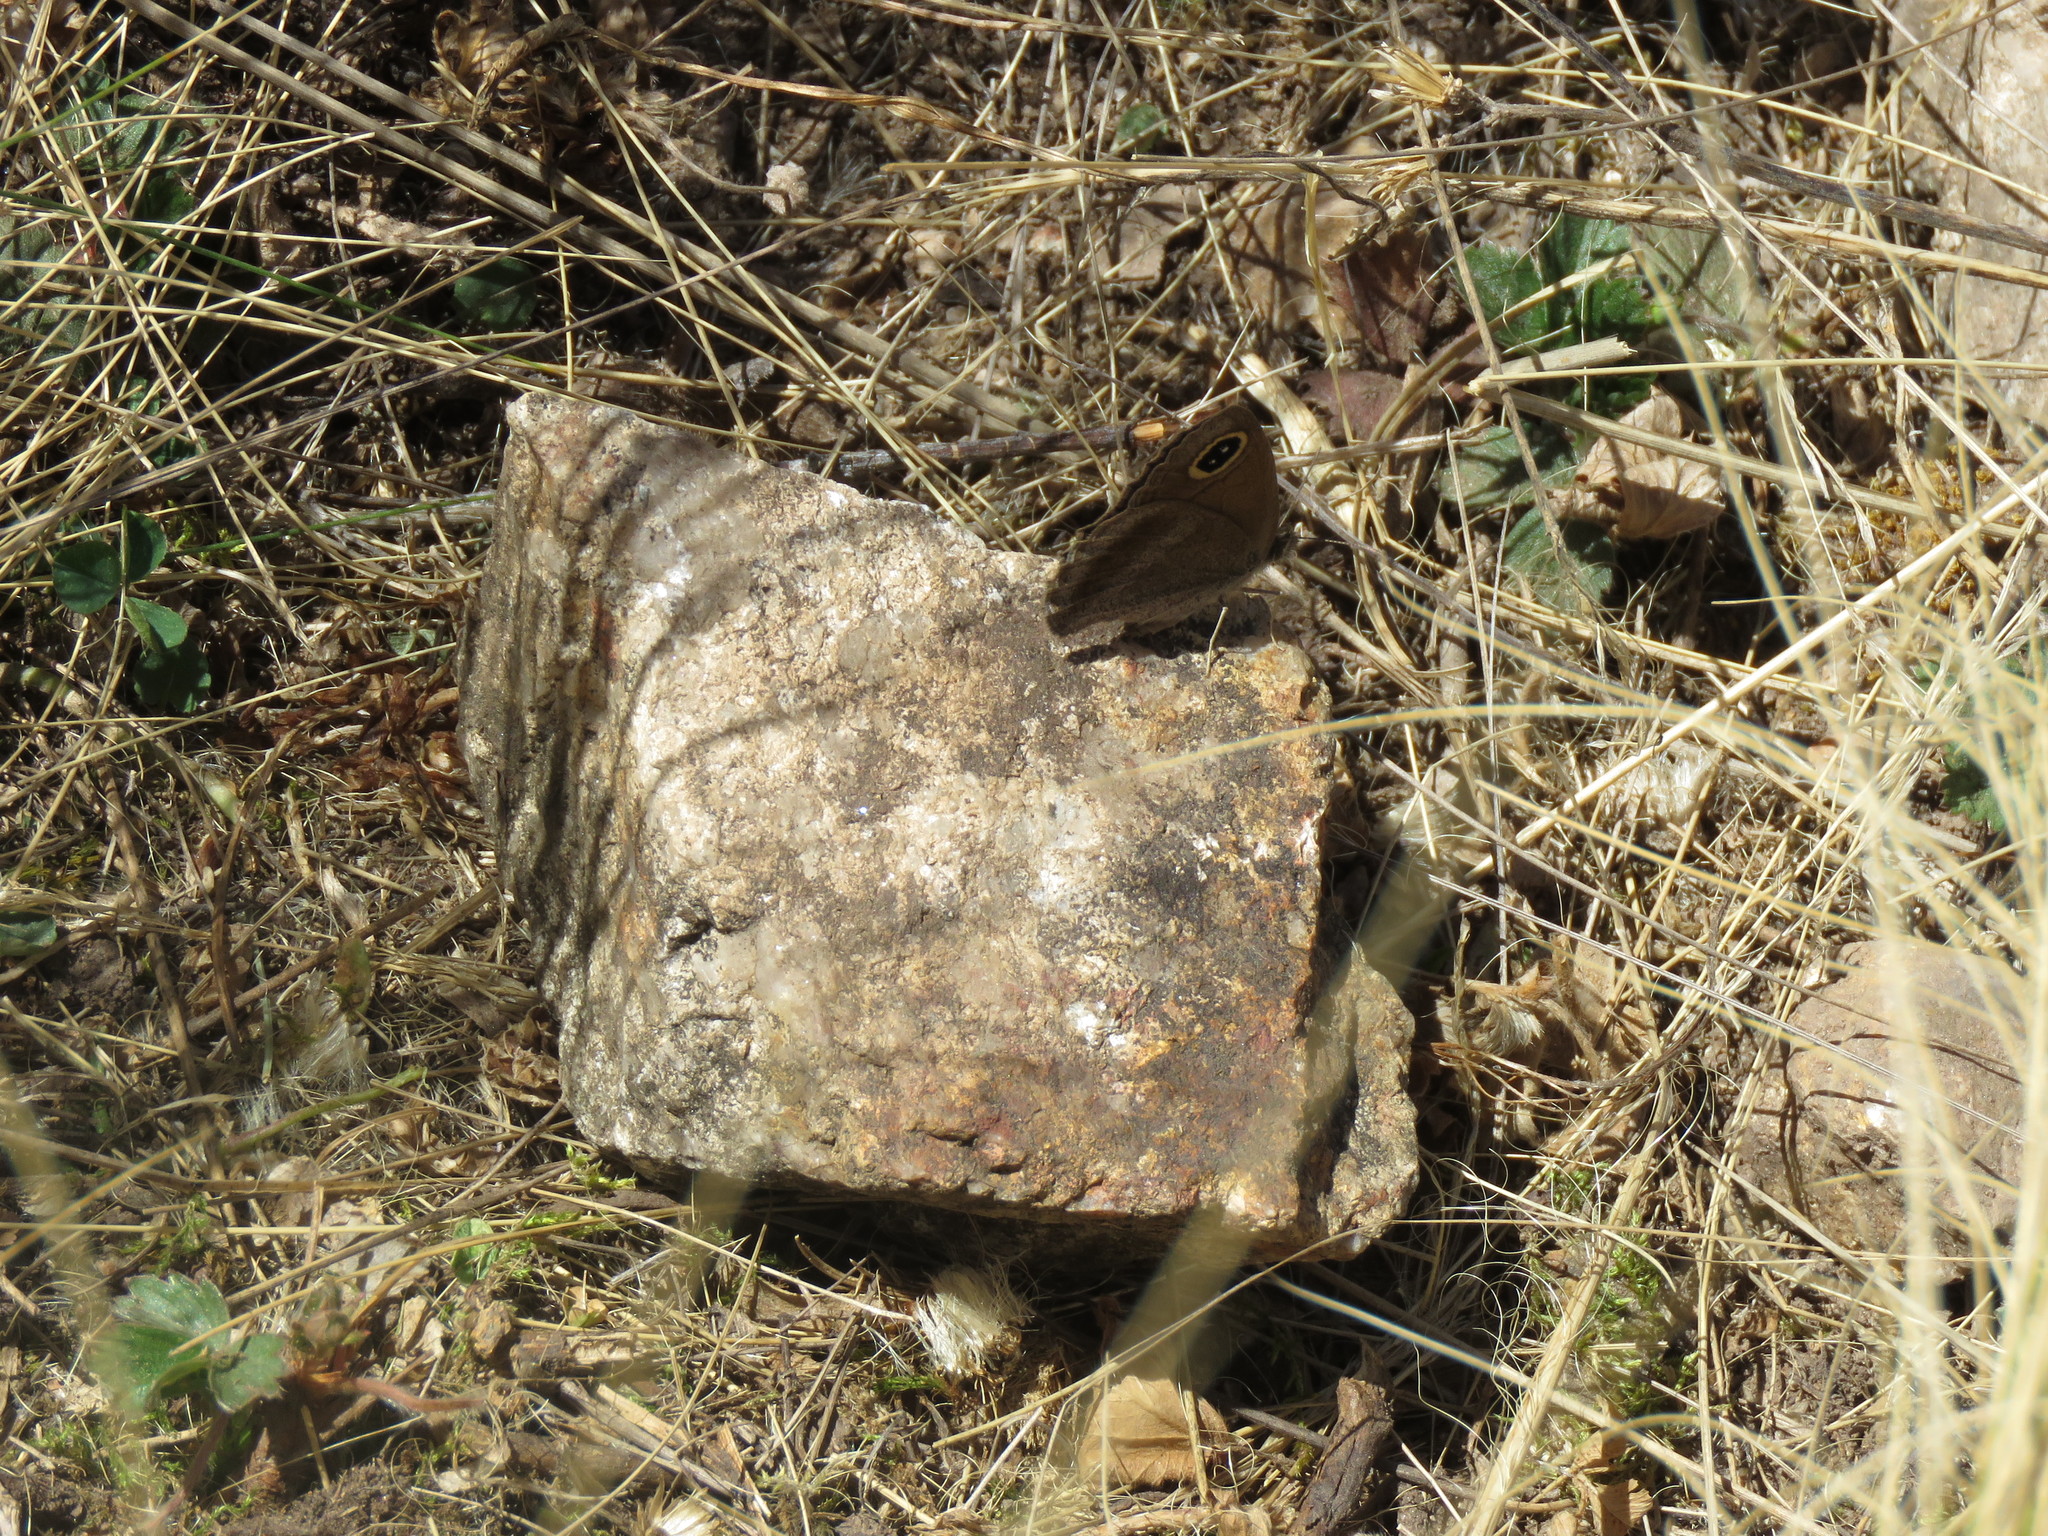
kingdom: Animalia
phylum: Arthropoda
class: Insecta
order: Lepidoptera
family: Nymphalidae
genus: Maniola
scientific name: Maniola imbrialis
